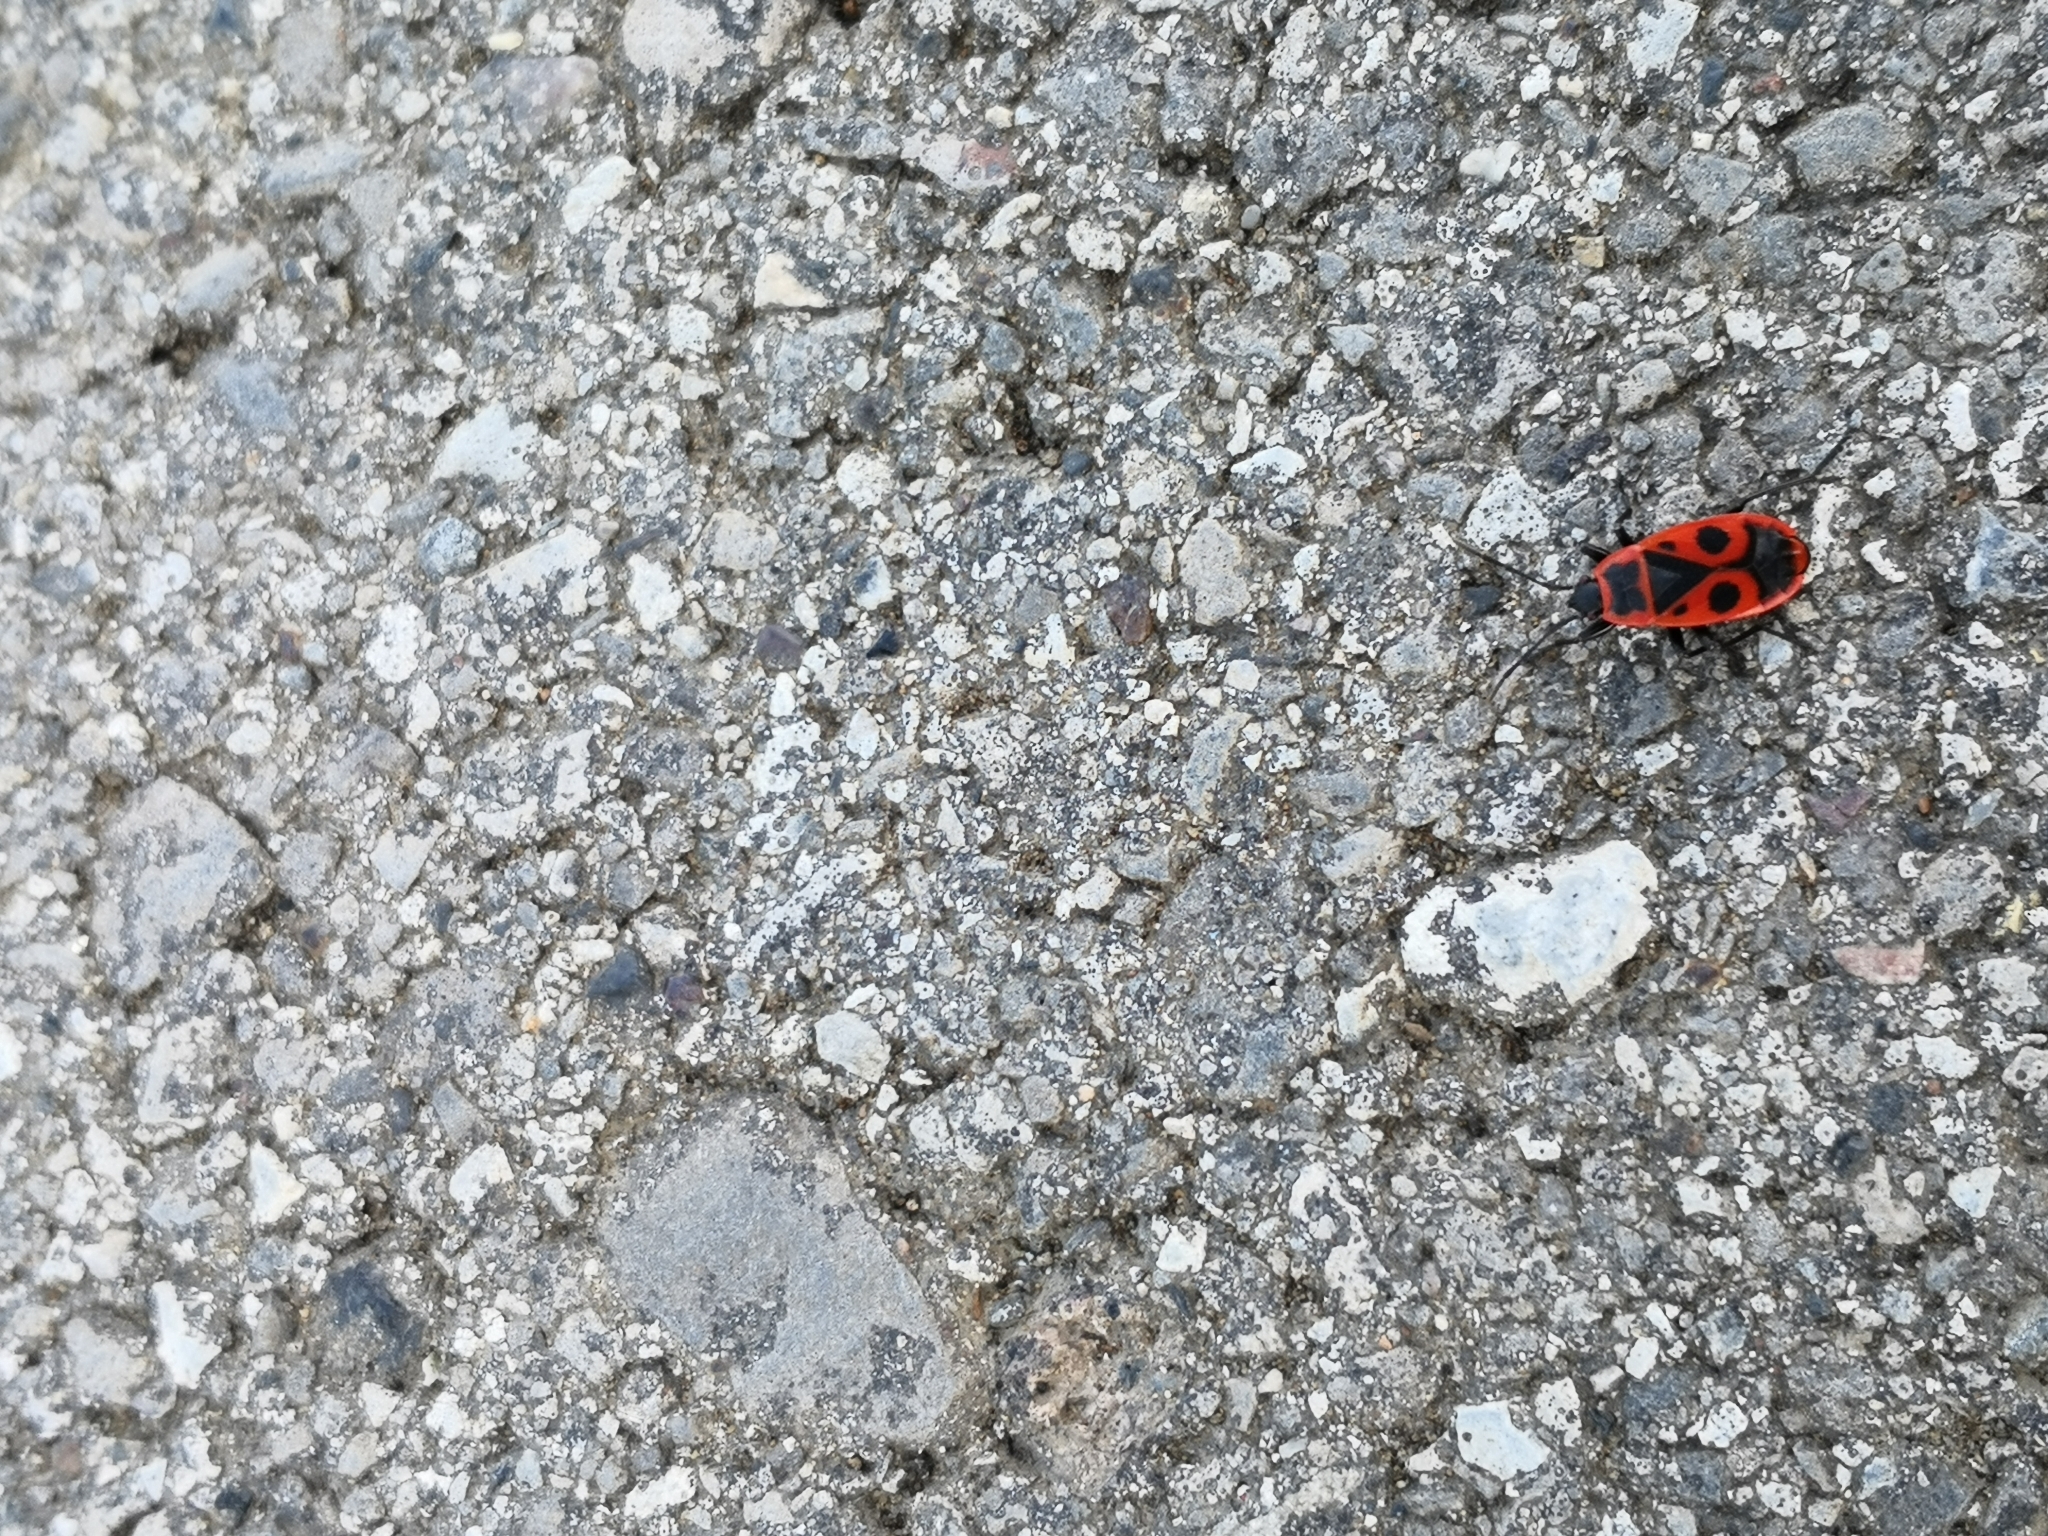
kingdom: Animalia
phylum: Arthropoda
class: Insecta
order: Hemiptera
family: Pyrrhocoridae
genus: Pyrrhocoris
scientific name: Pyrrhocoris apterus
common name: Firebug
